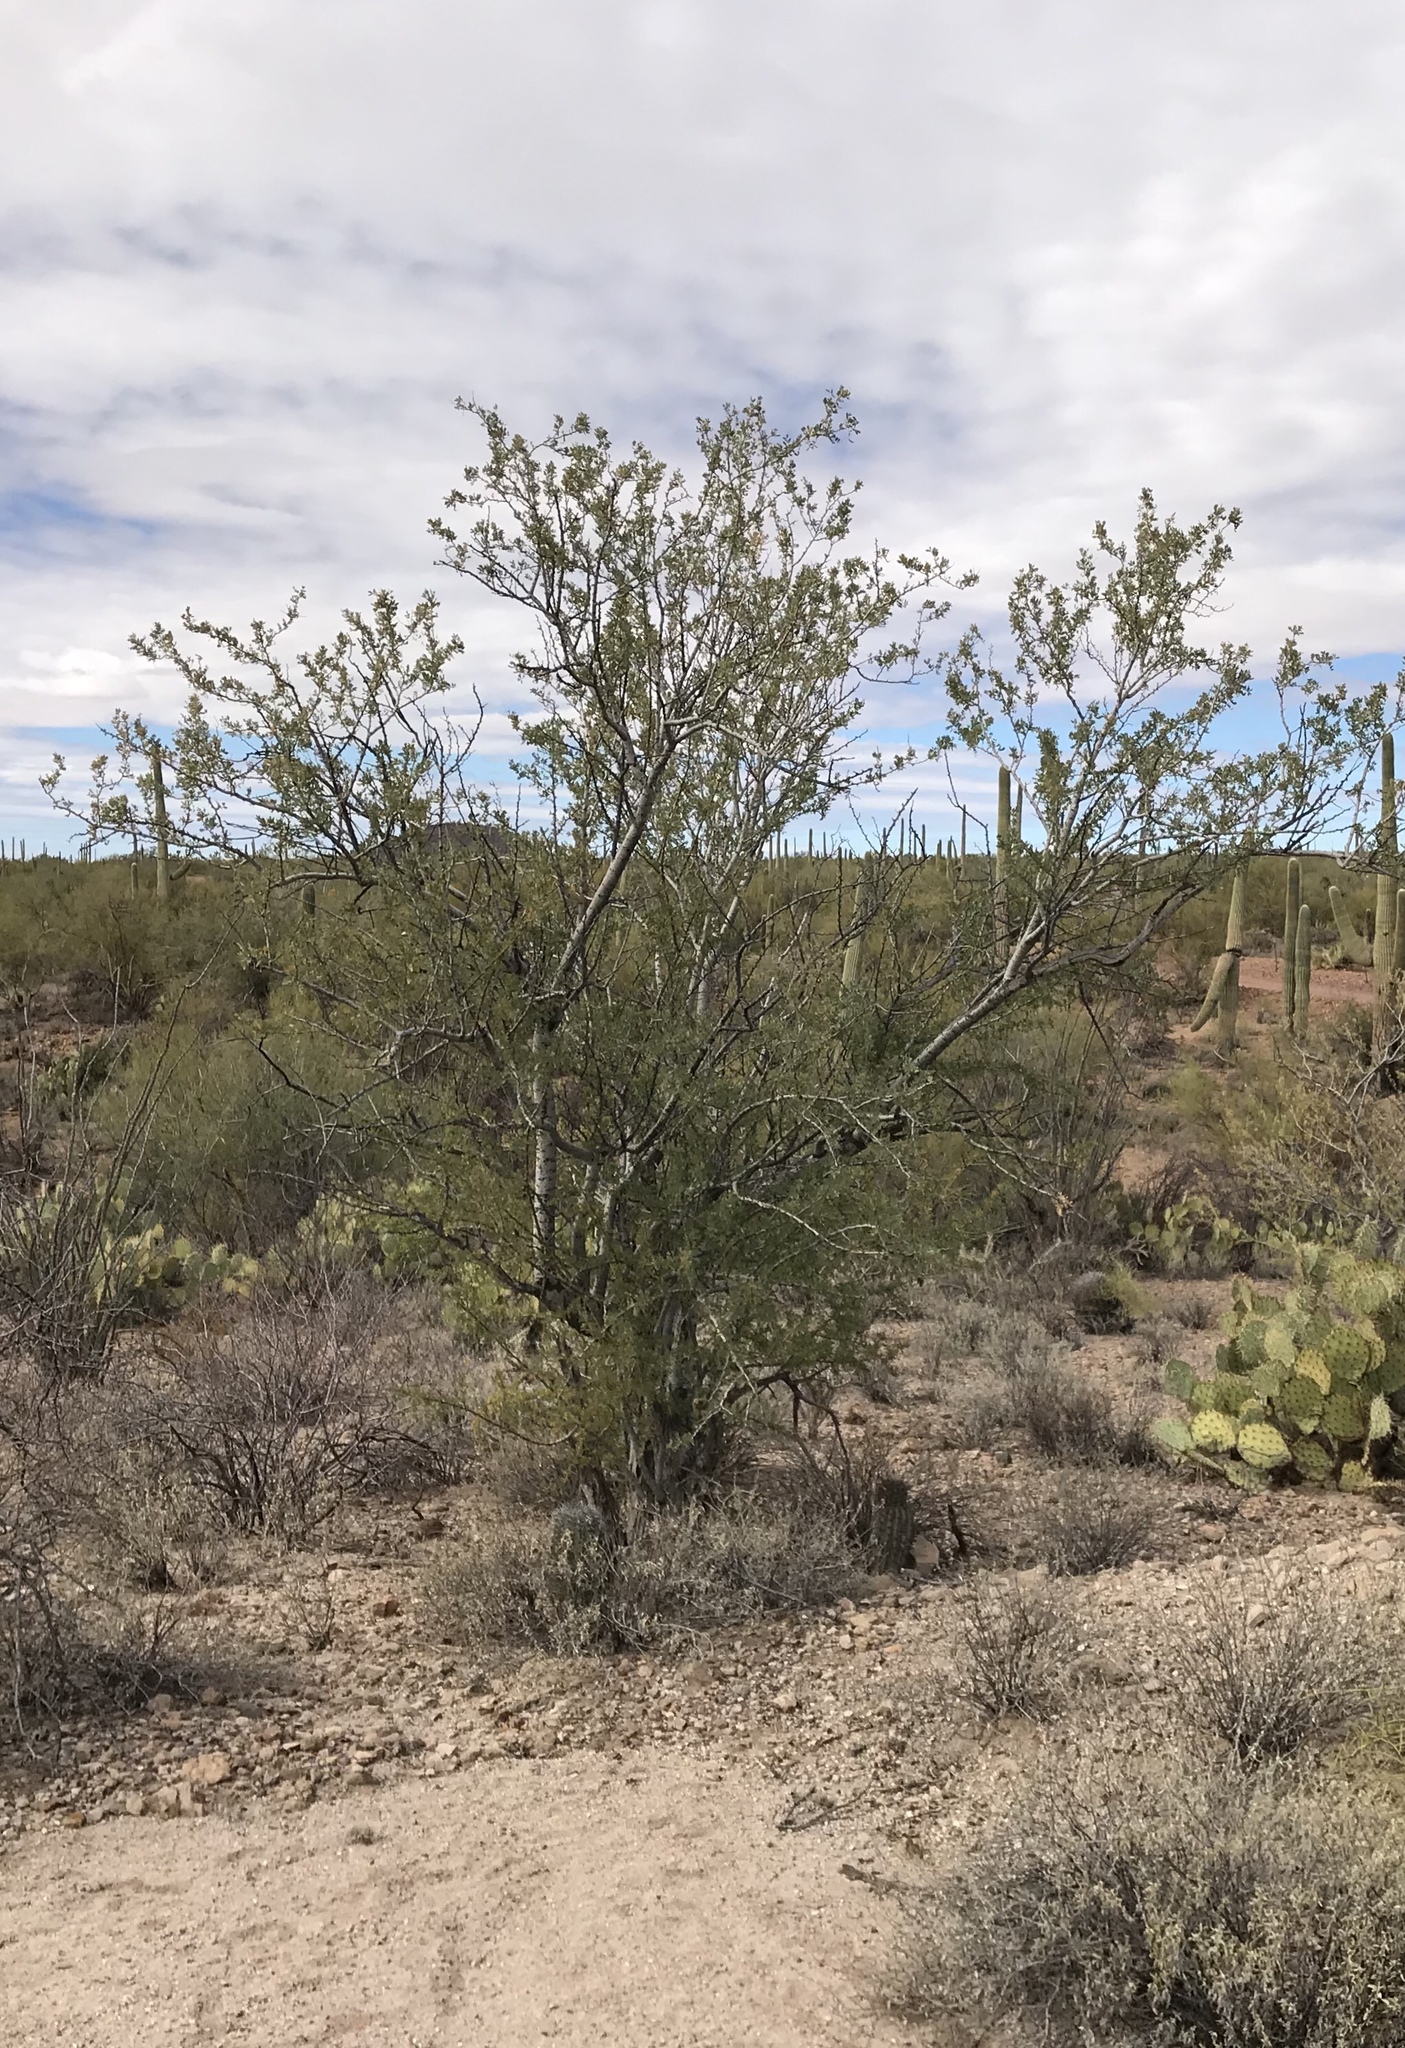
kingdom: Plantae
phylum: Tracheophyta
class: Magnoliopsida
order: Fabales
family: Fabaceae
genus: Olneya
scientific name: Olneya tesota
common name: Desert ironwood
